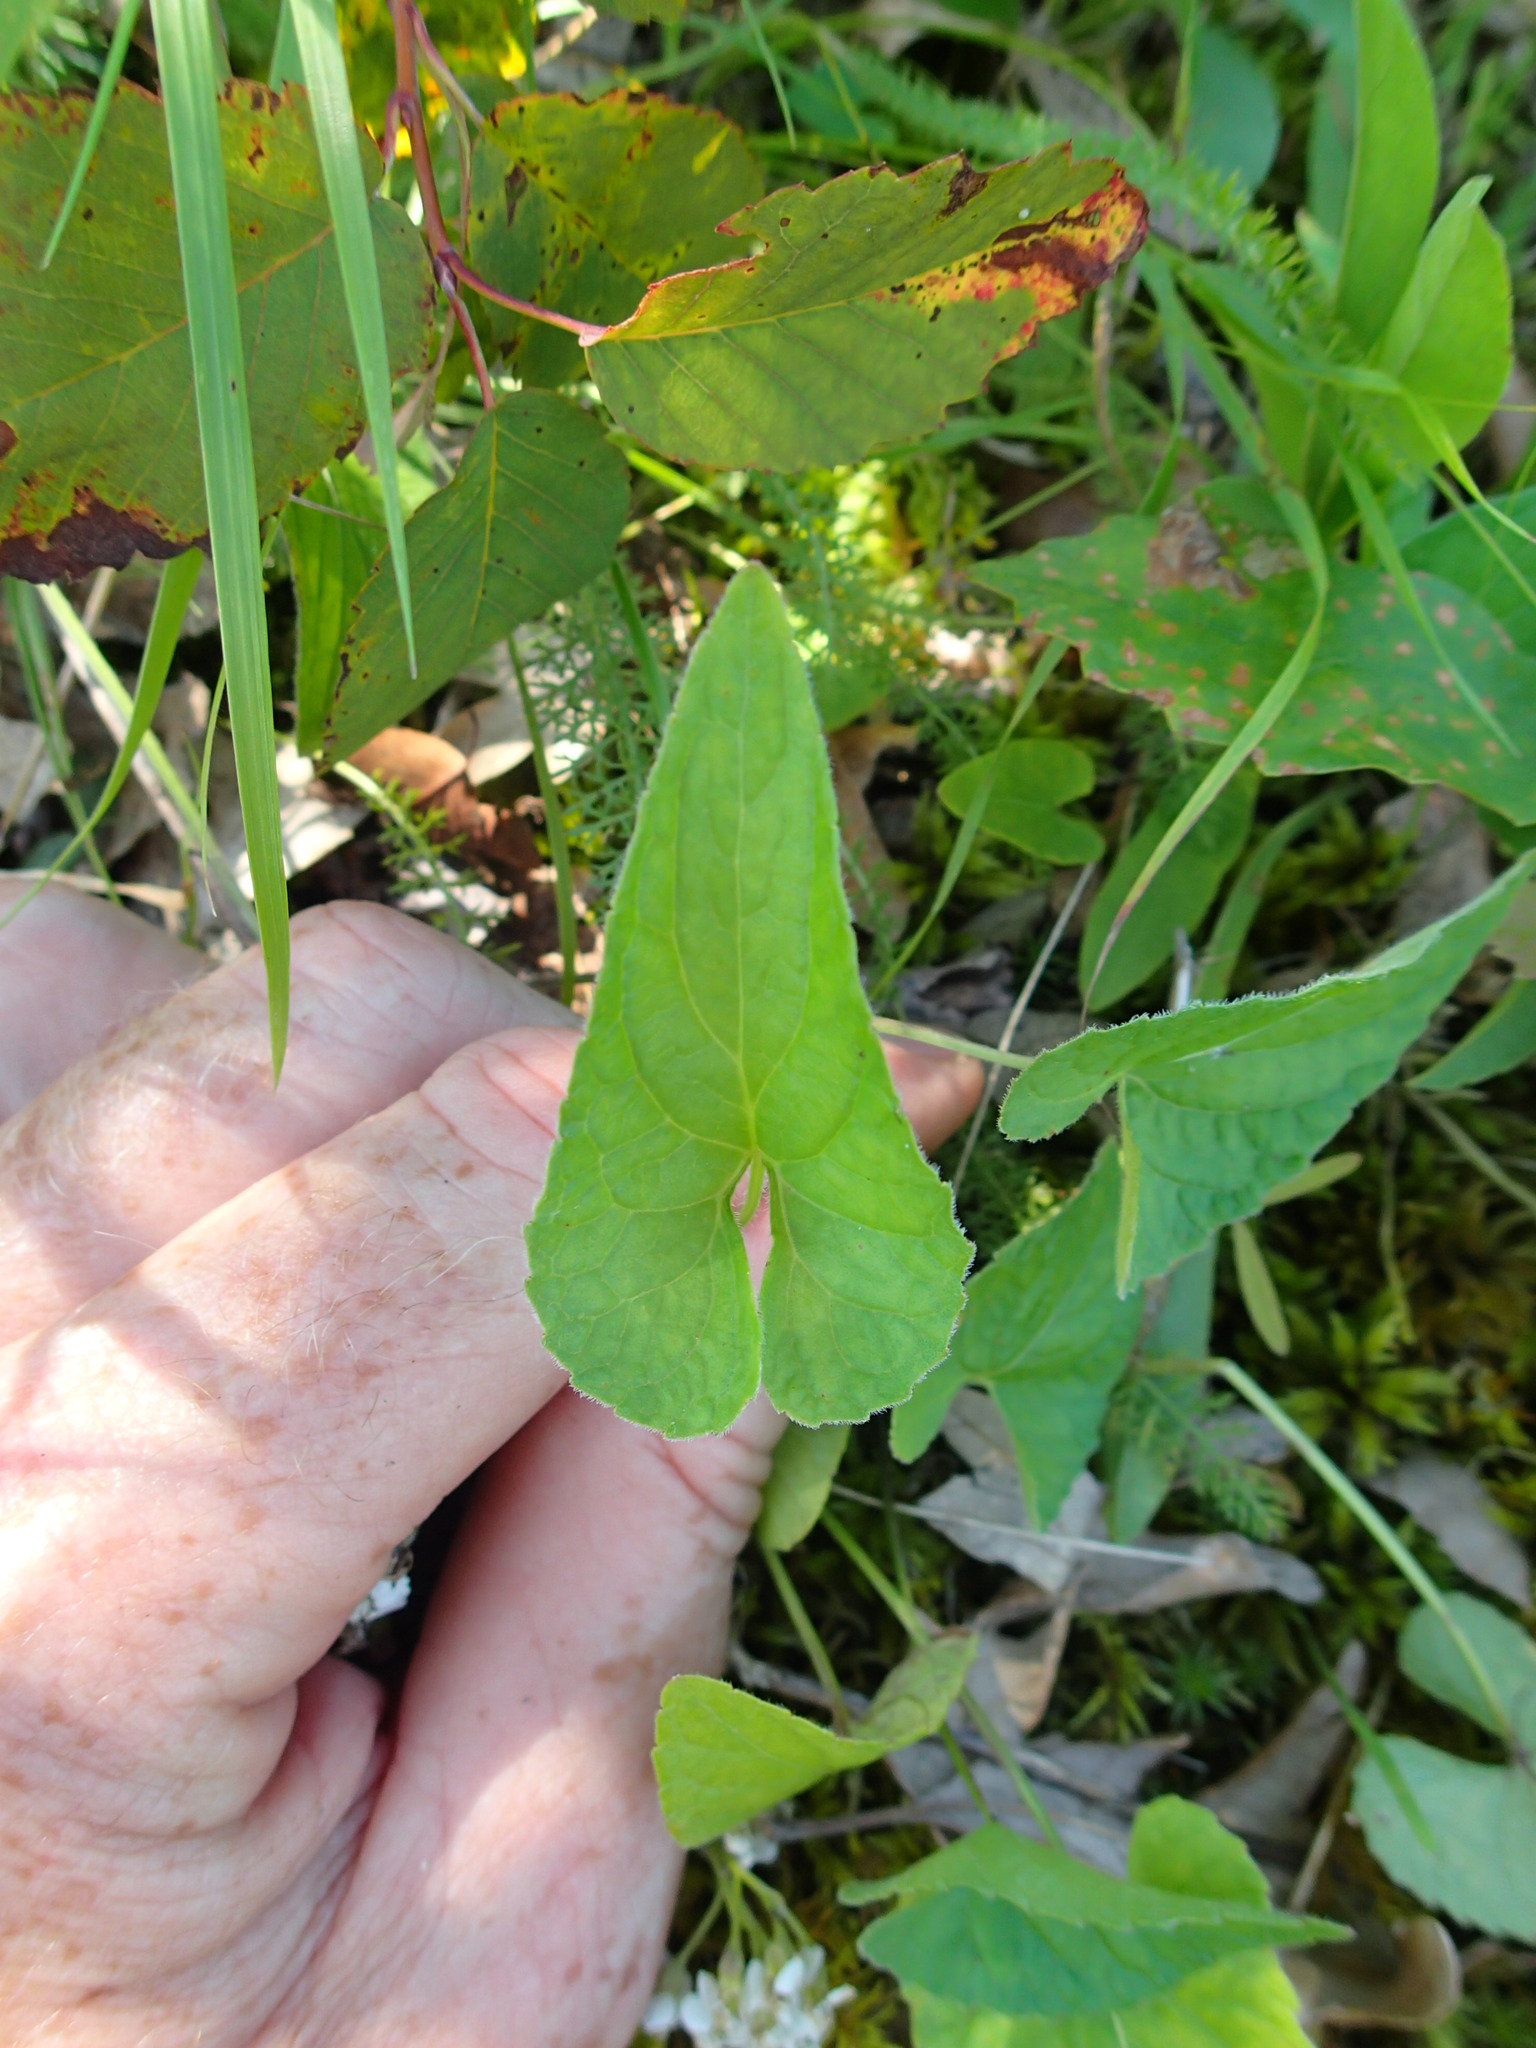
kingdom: Plantae
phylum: Tracheophyta
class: Magnoliopsida
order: Malpighiales
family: Violaceae
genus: Viola
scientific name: Viola novae-angliae
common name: New england blue violet
